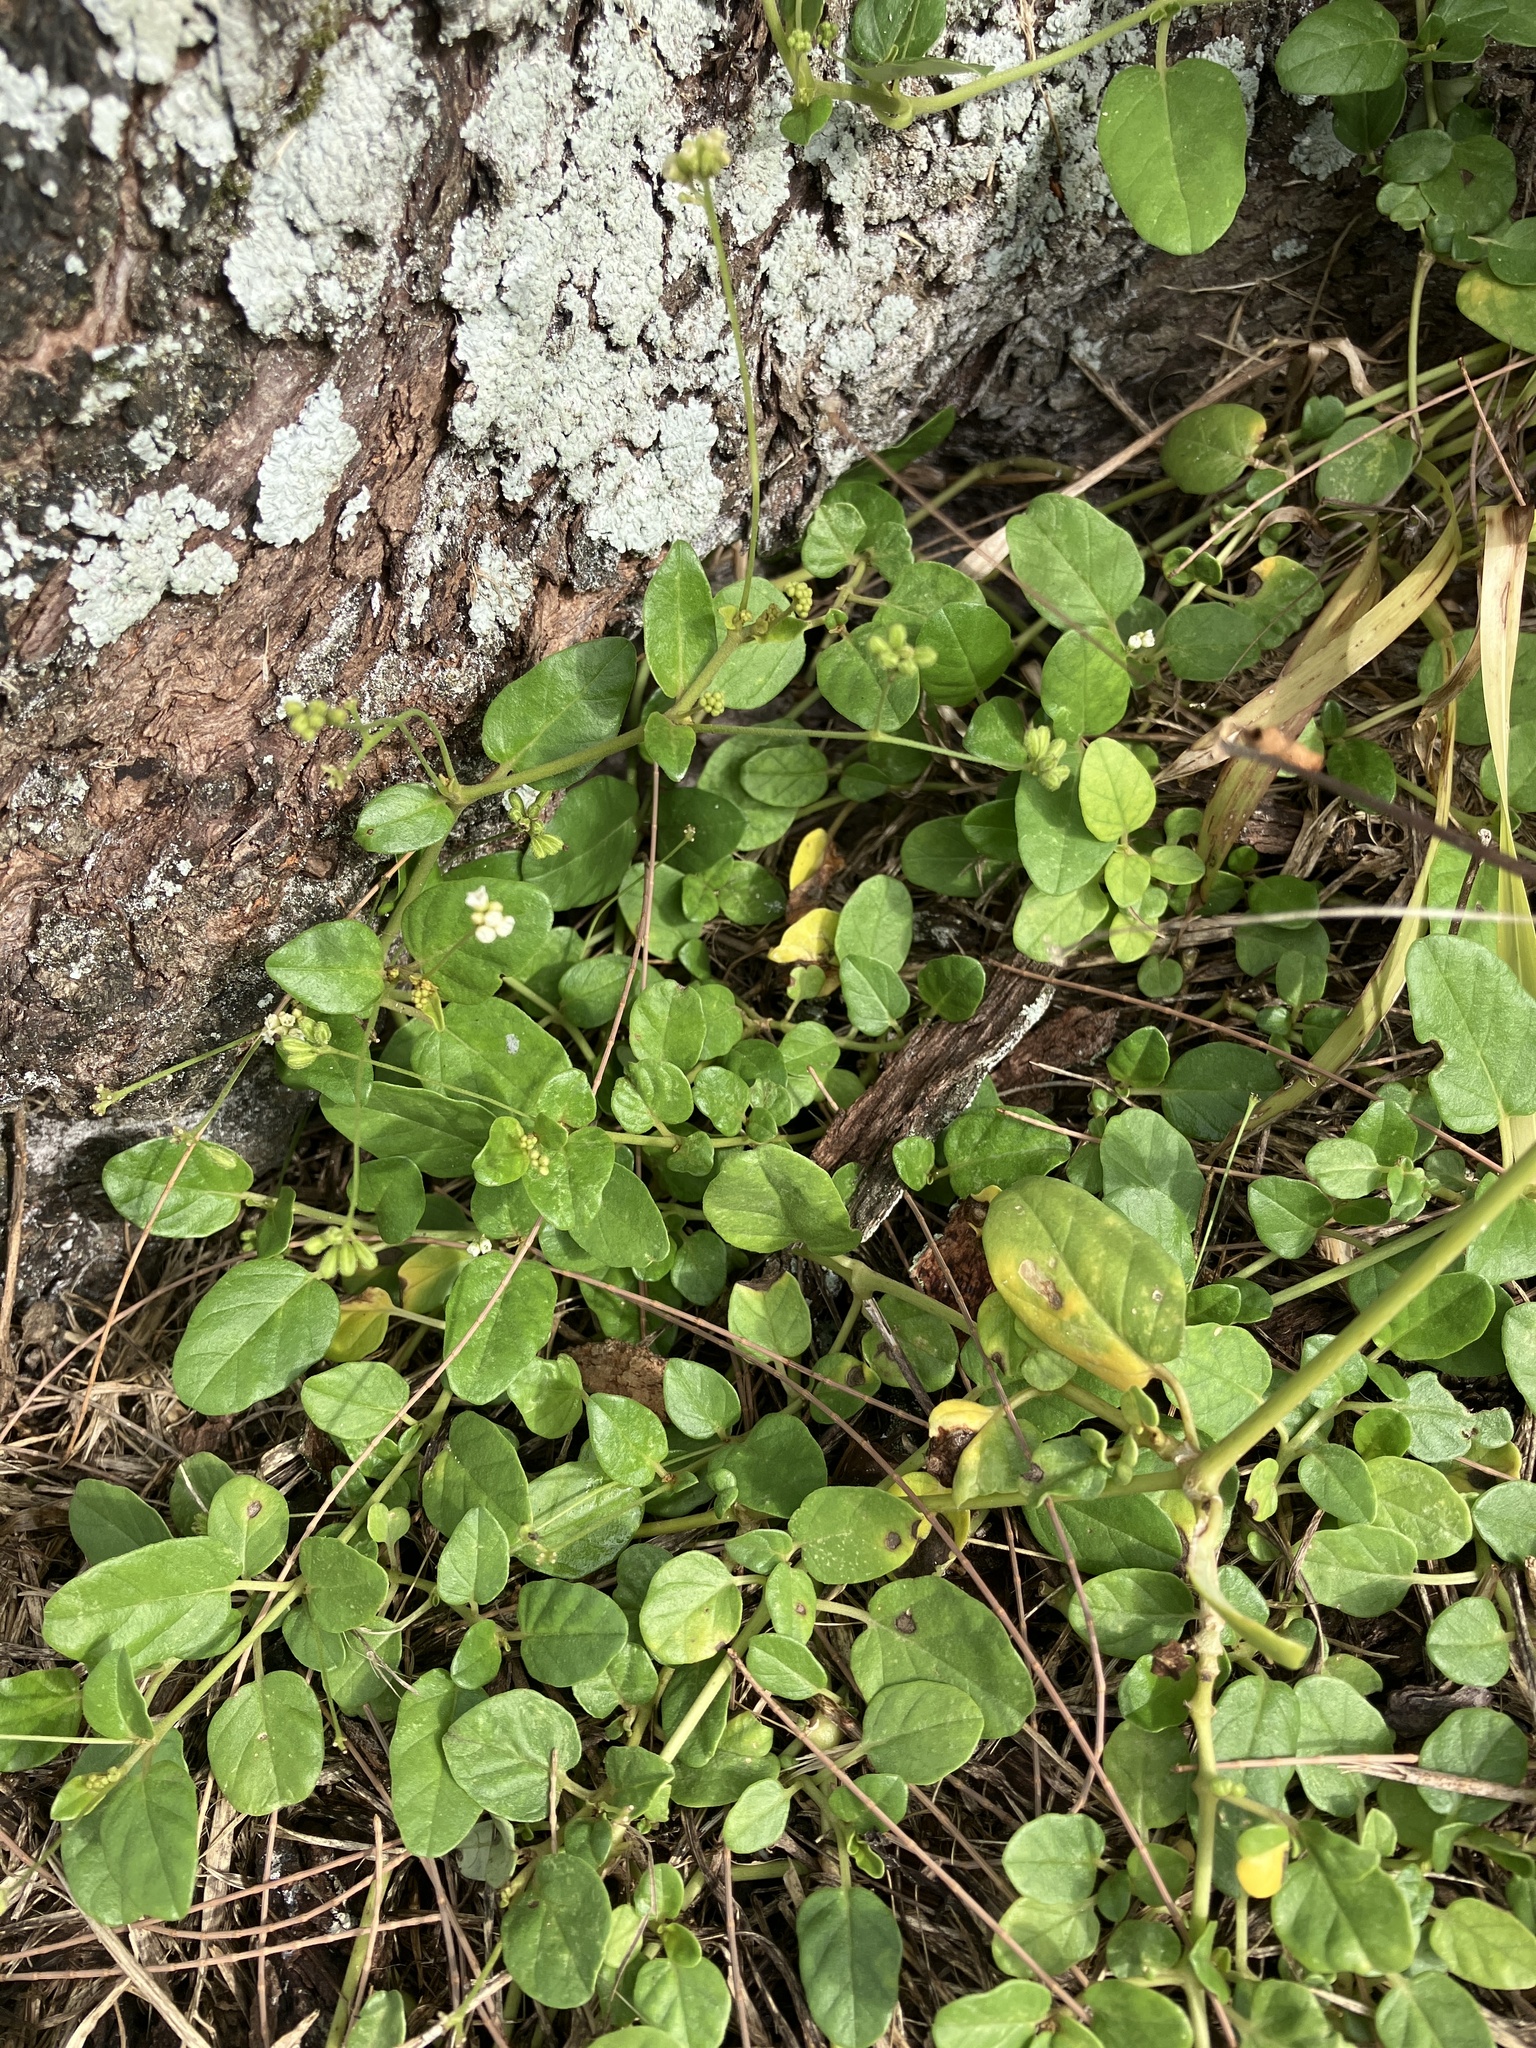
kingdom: Plantae
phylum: Tracheophyta
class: Magnoliopsida
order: Caryophyllales
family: Nyctaginaceae
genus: Boerhavia
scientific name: Boerhavia repens
